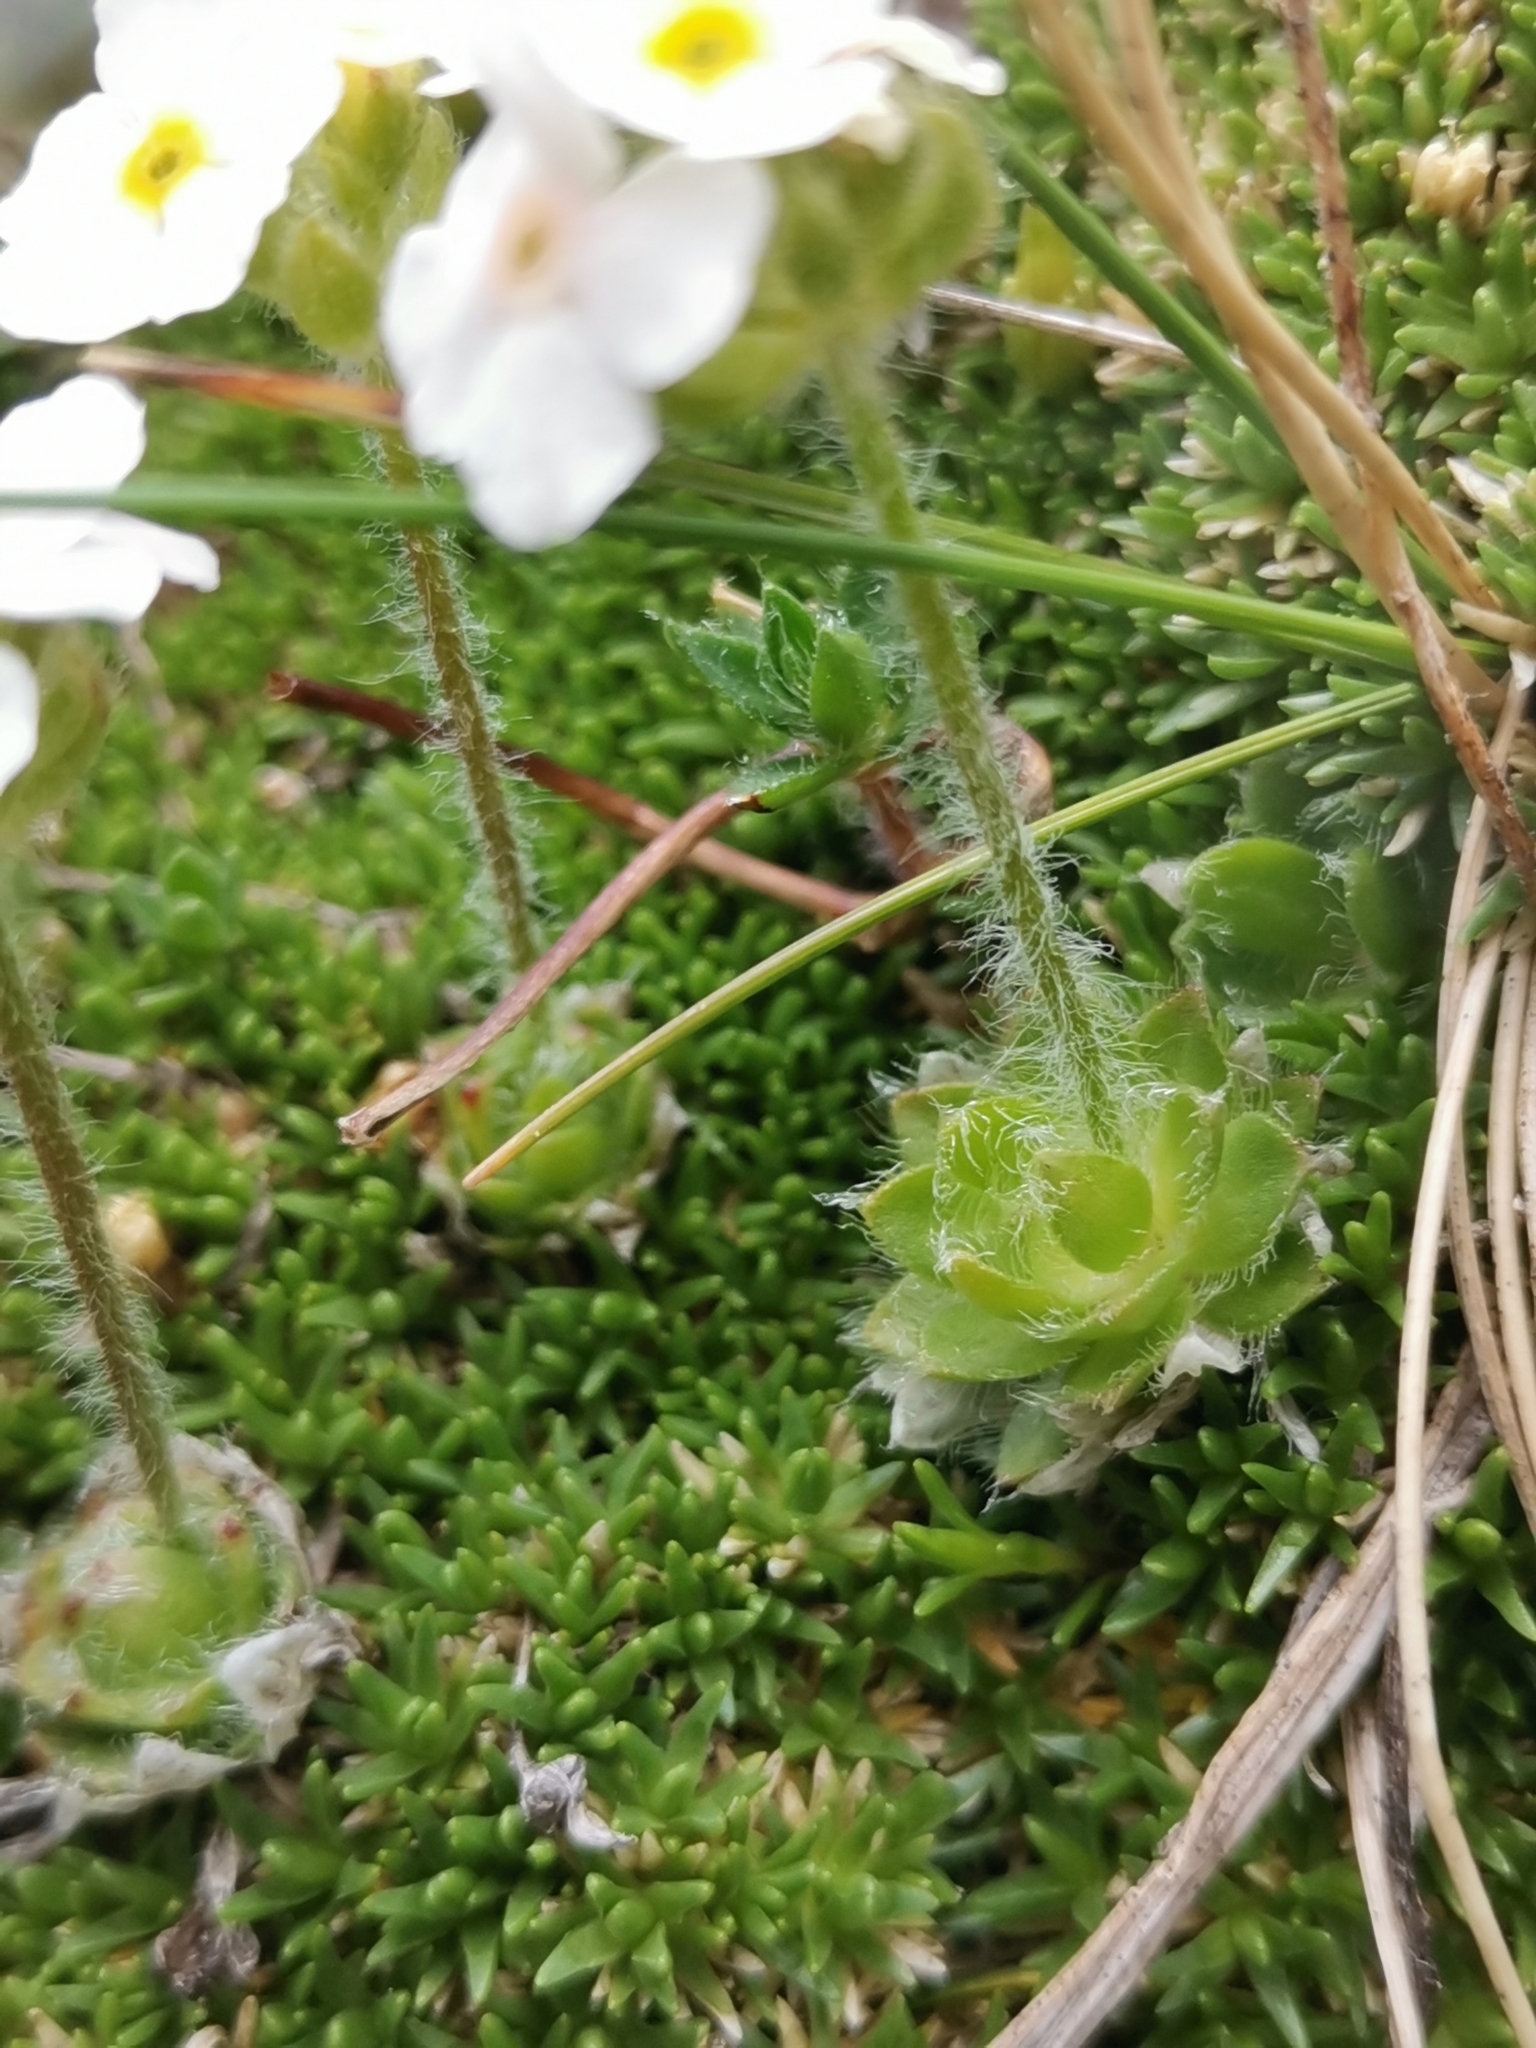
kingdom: Plantae
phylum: Tracheophyta
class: Magnoliopsida
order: Ericales
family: Primulaceae
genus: Androsace
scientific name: Androsace villosa
